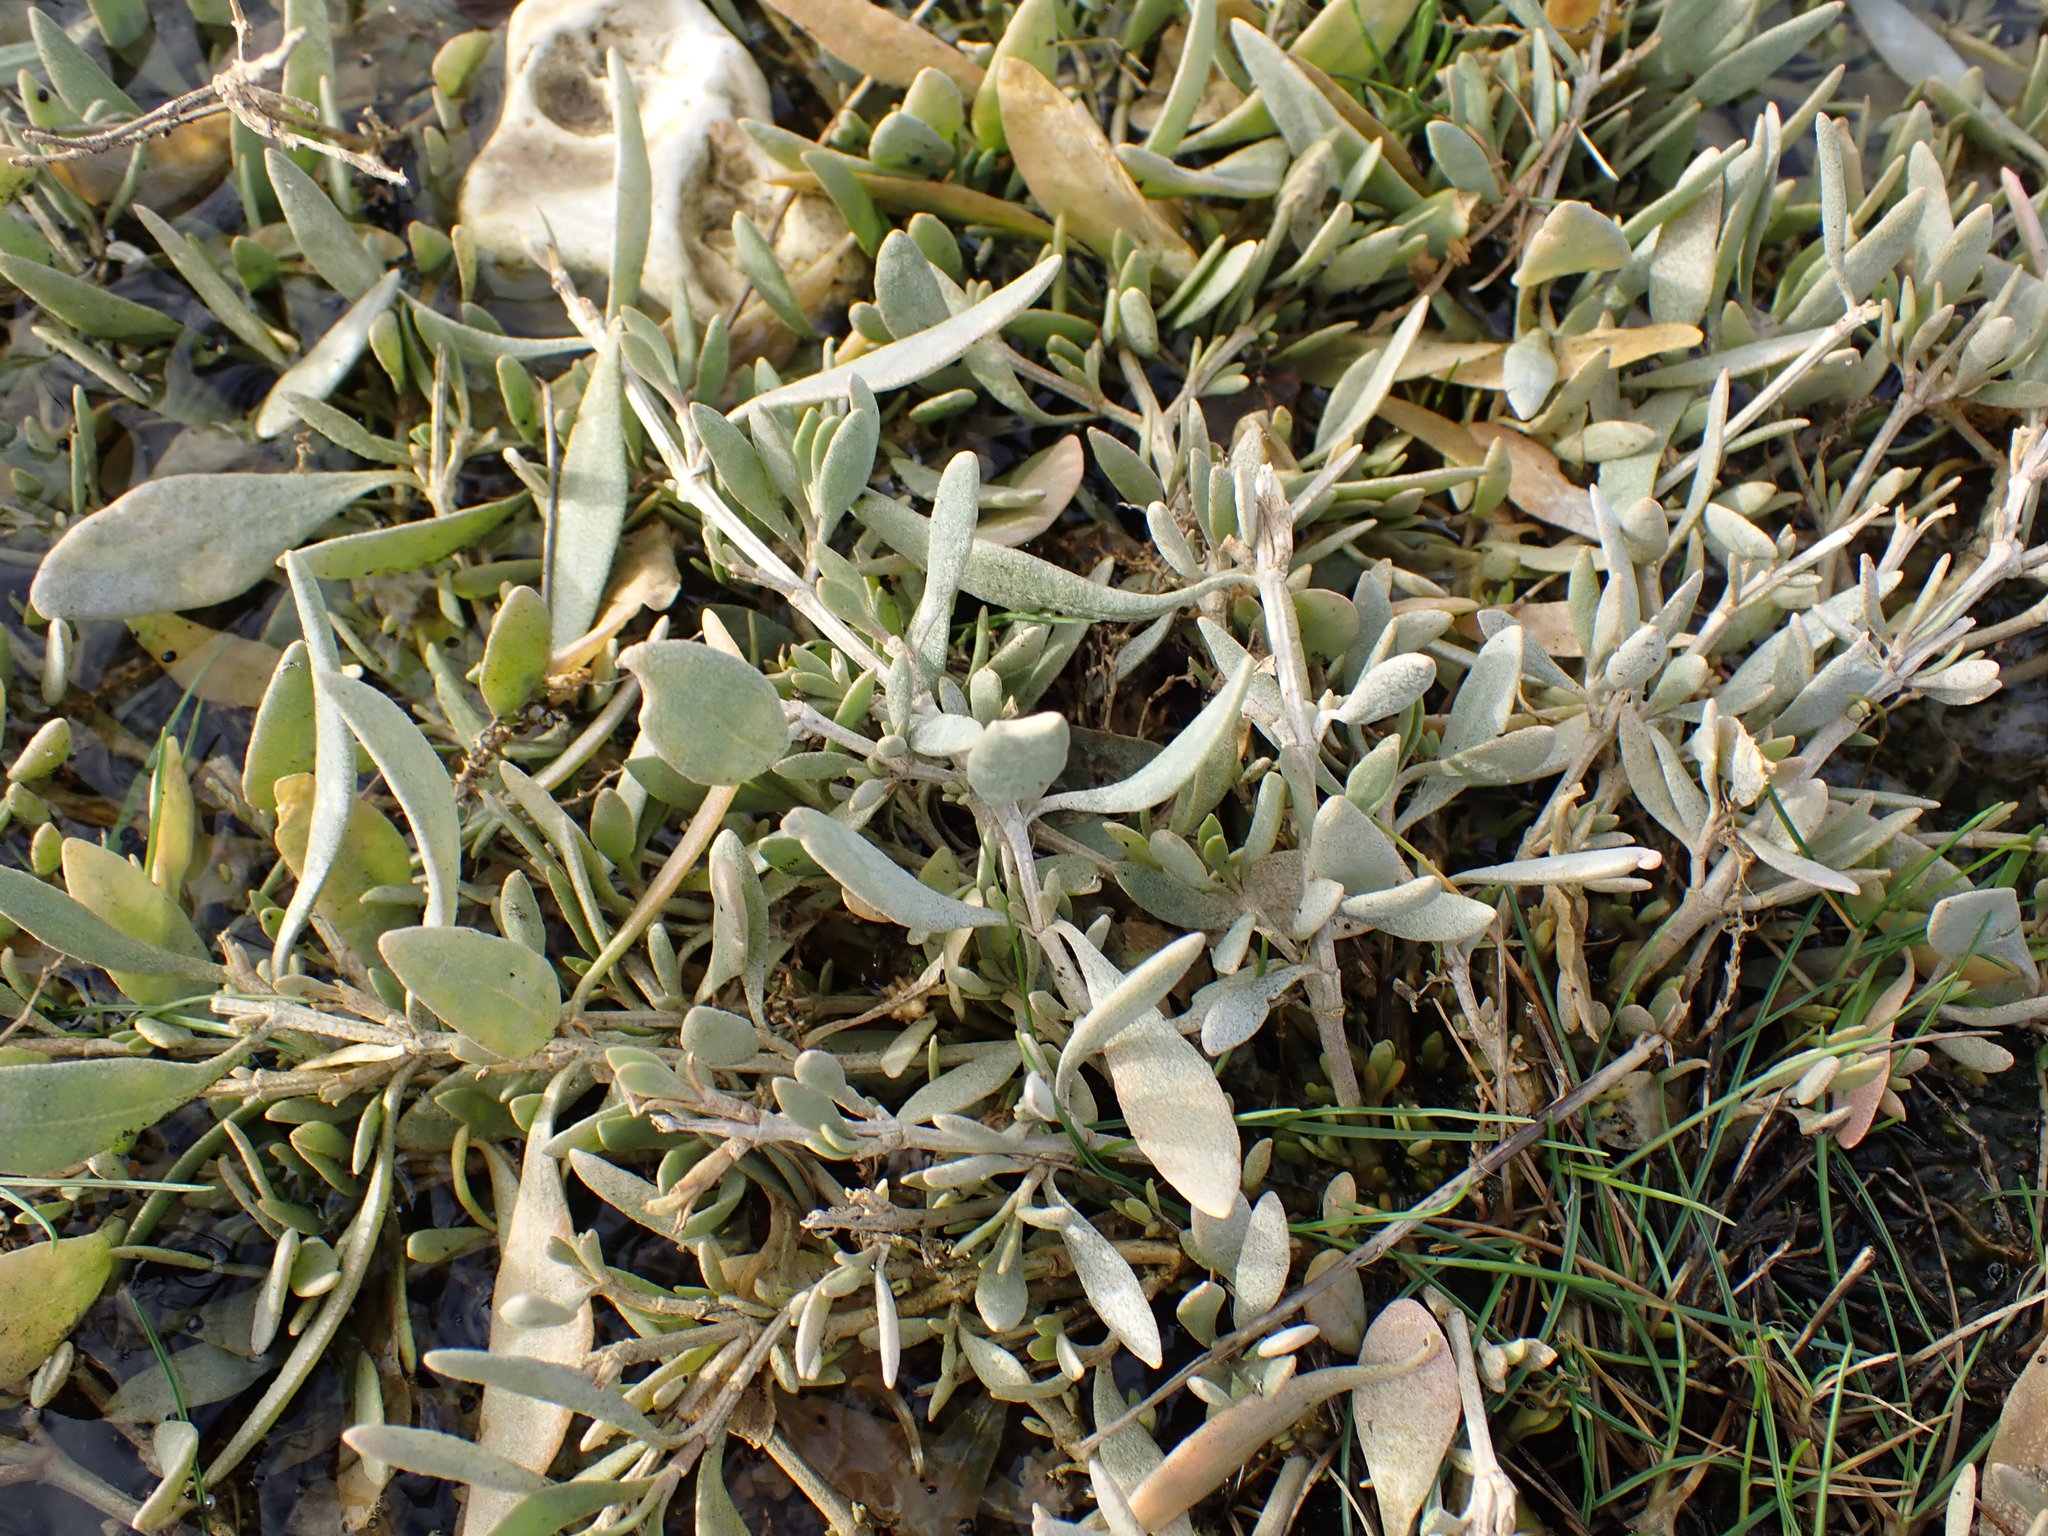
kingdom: Plantae
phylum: Tracheophyta
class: Magnoliopsida
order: Caryophyllales
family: Amaranthaceae
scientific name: Amaranthaceae
